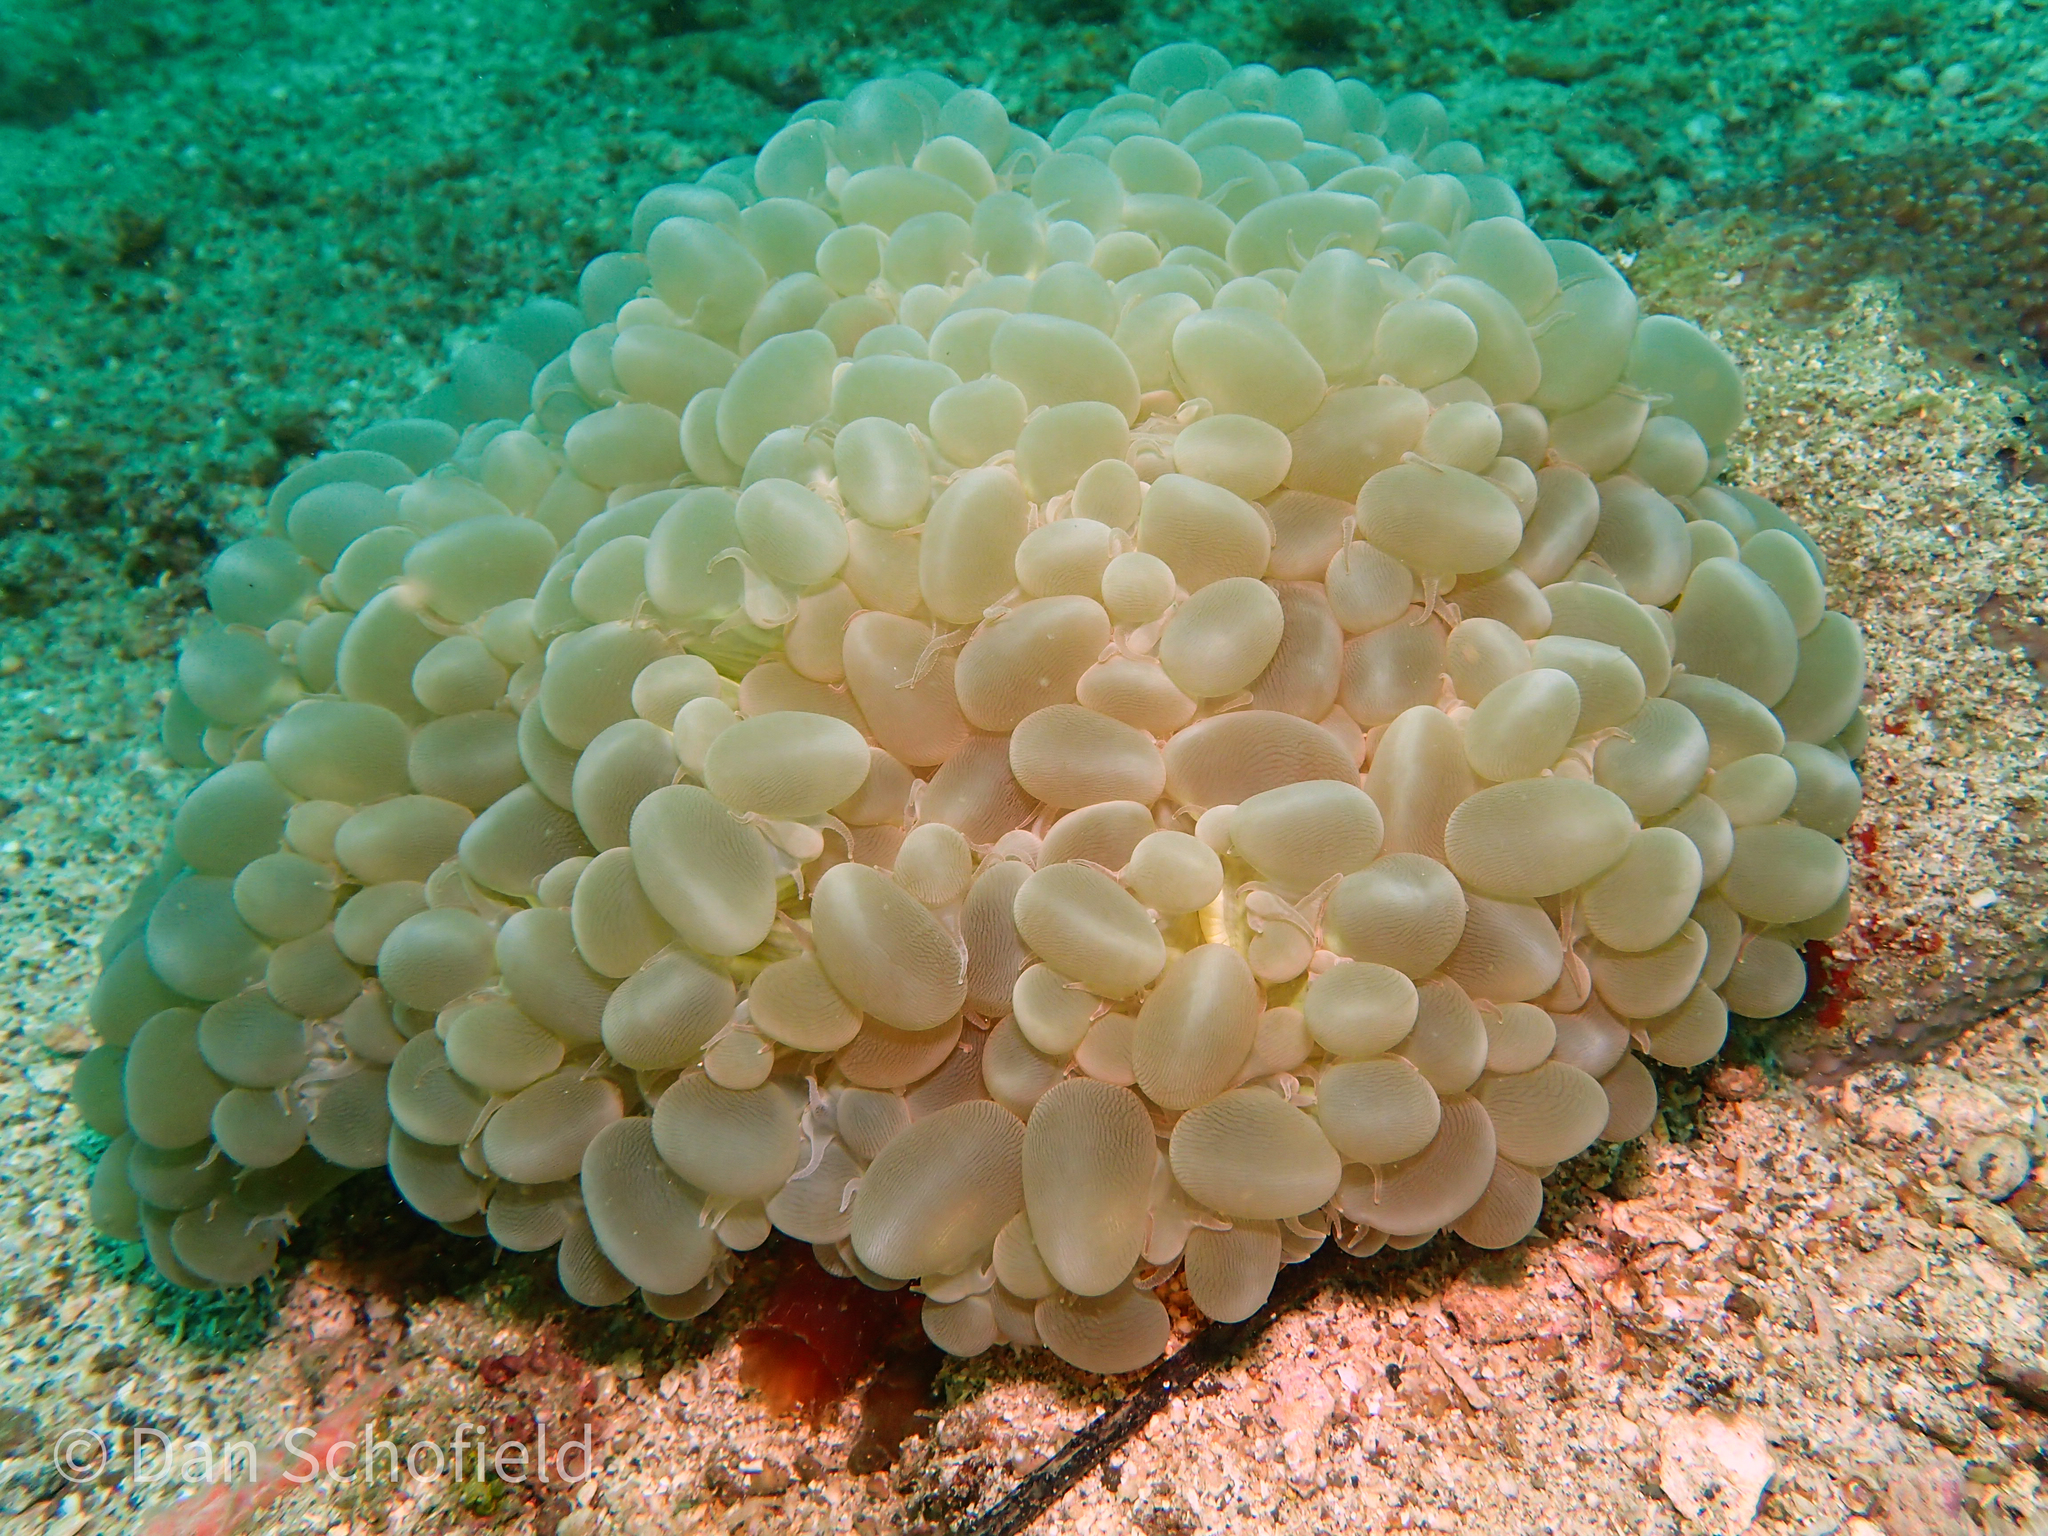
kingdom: Animalia
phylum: Cnidaria
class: Anthozoa
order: Scleractinia
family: Plerogyridae
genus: Plerogyra
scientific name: Plerogyra sinuosa
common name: Bubble coral
